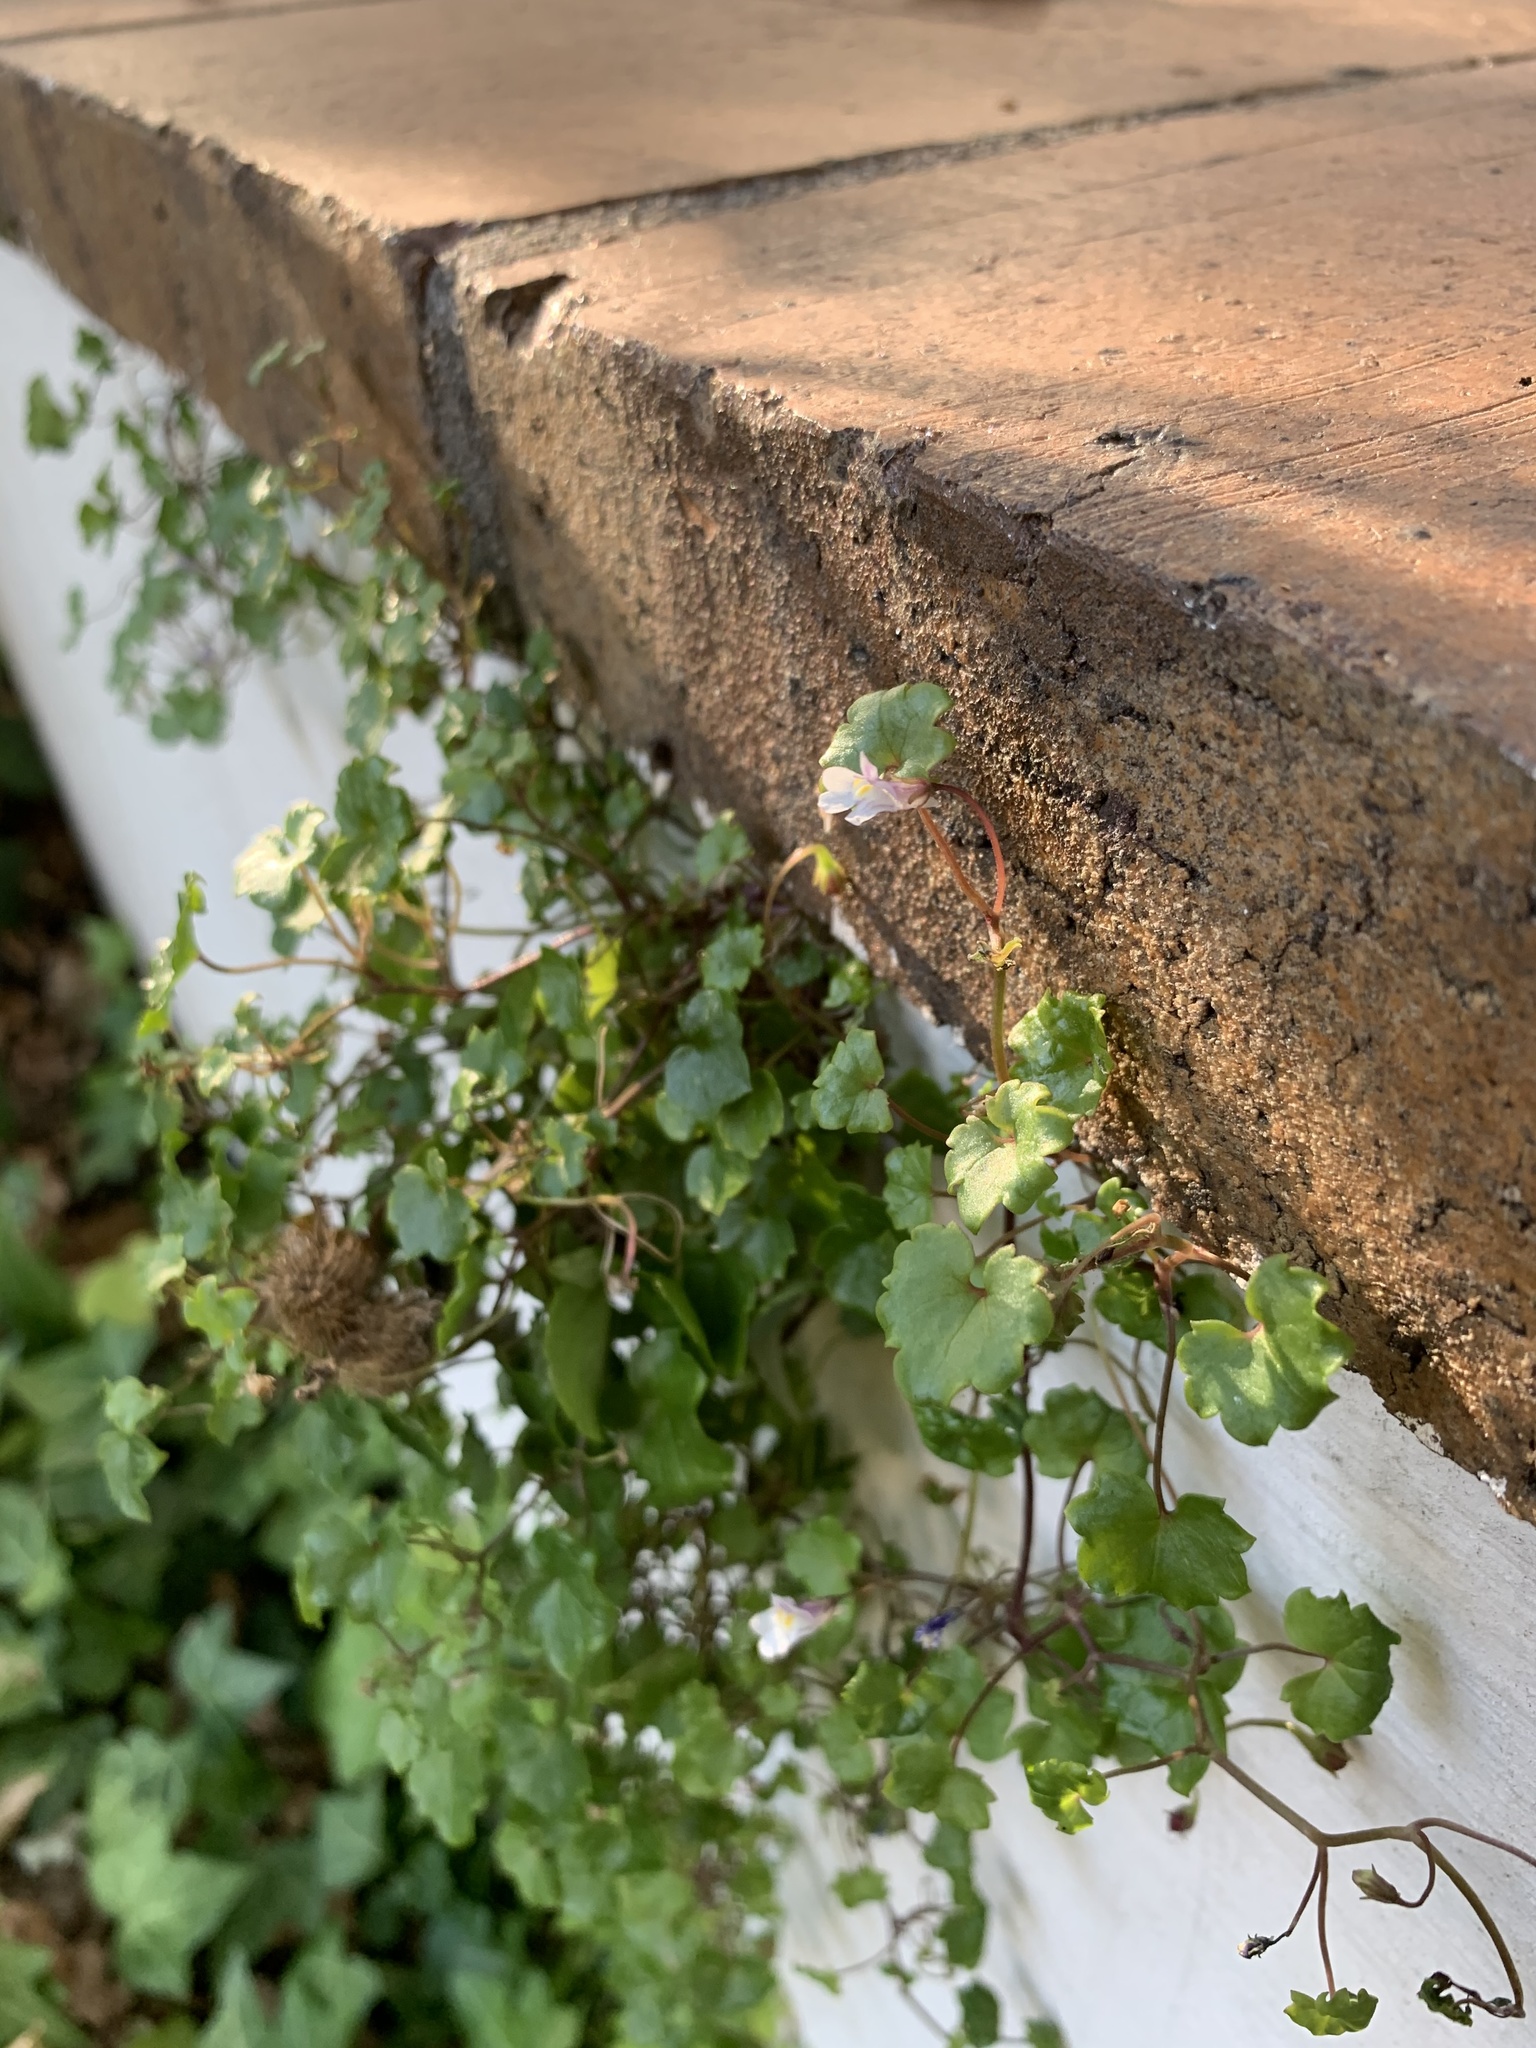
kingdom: Plantae
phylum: Tracheophyta
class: Magnoliopsida
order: Lamiales
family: Plantaginaceae
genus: Cymbalaria
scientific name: Cymbalaria muralis
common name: Ivy-leaved toadflax
